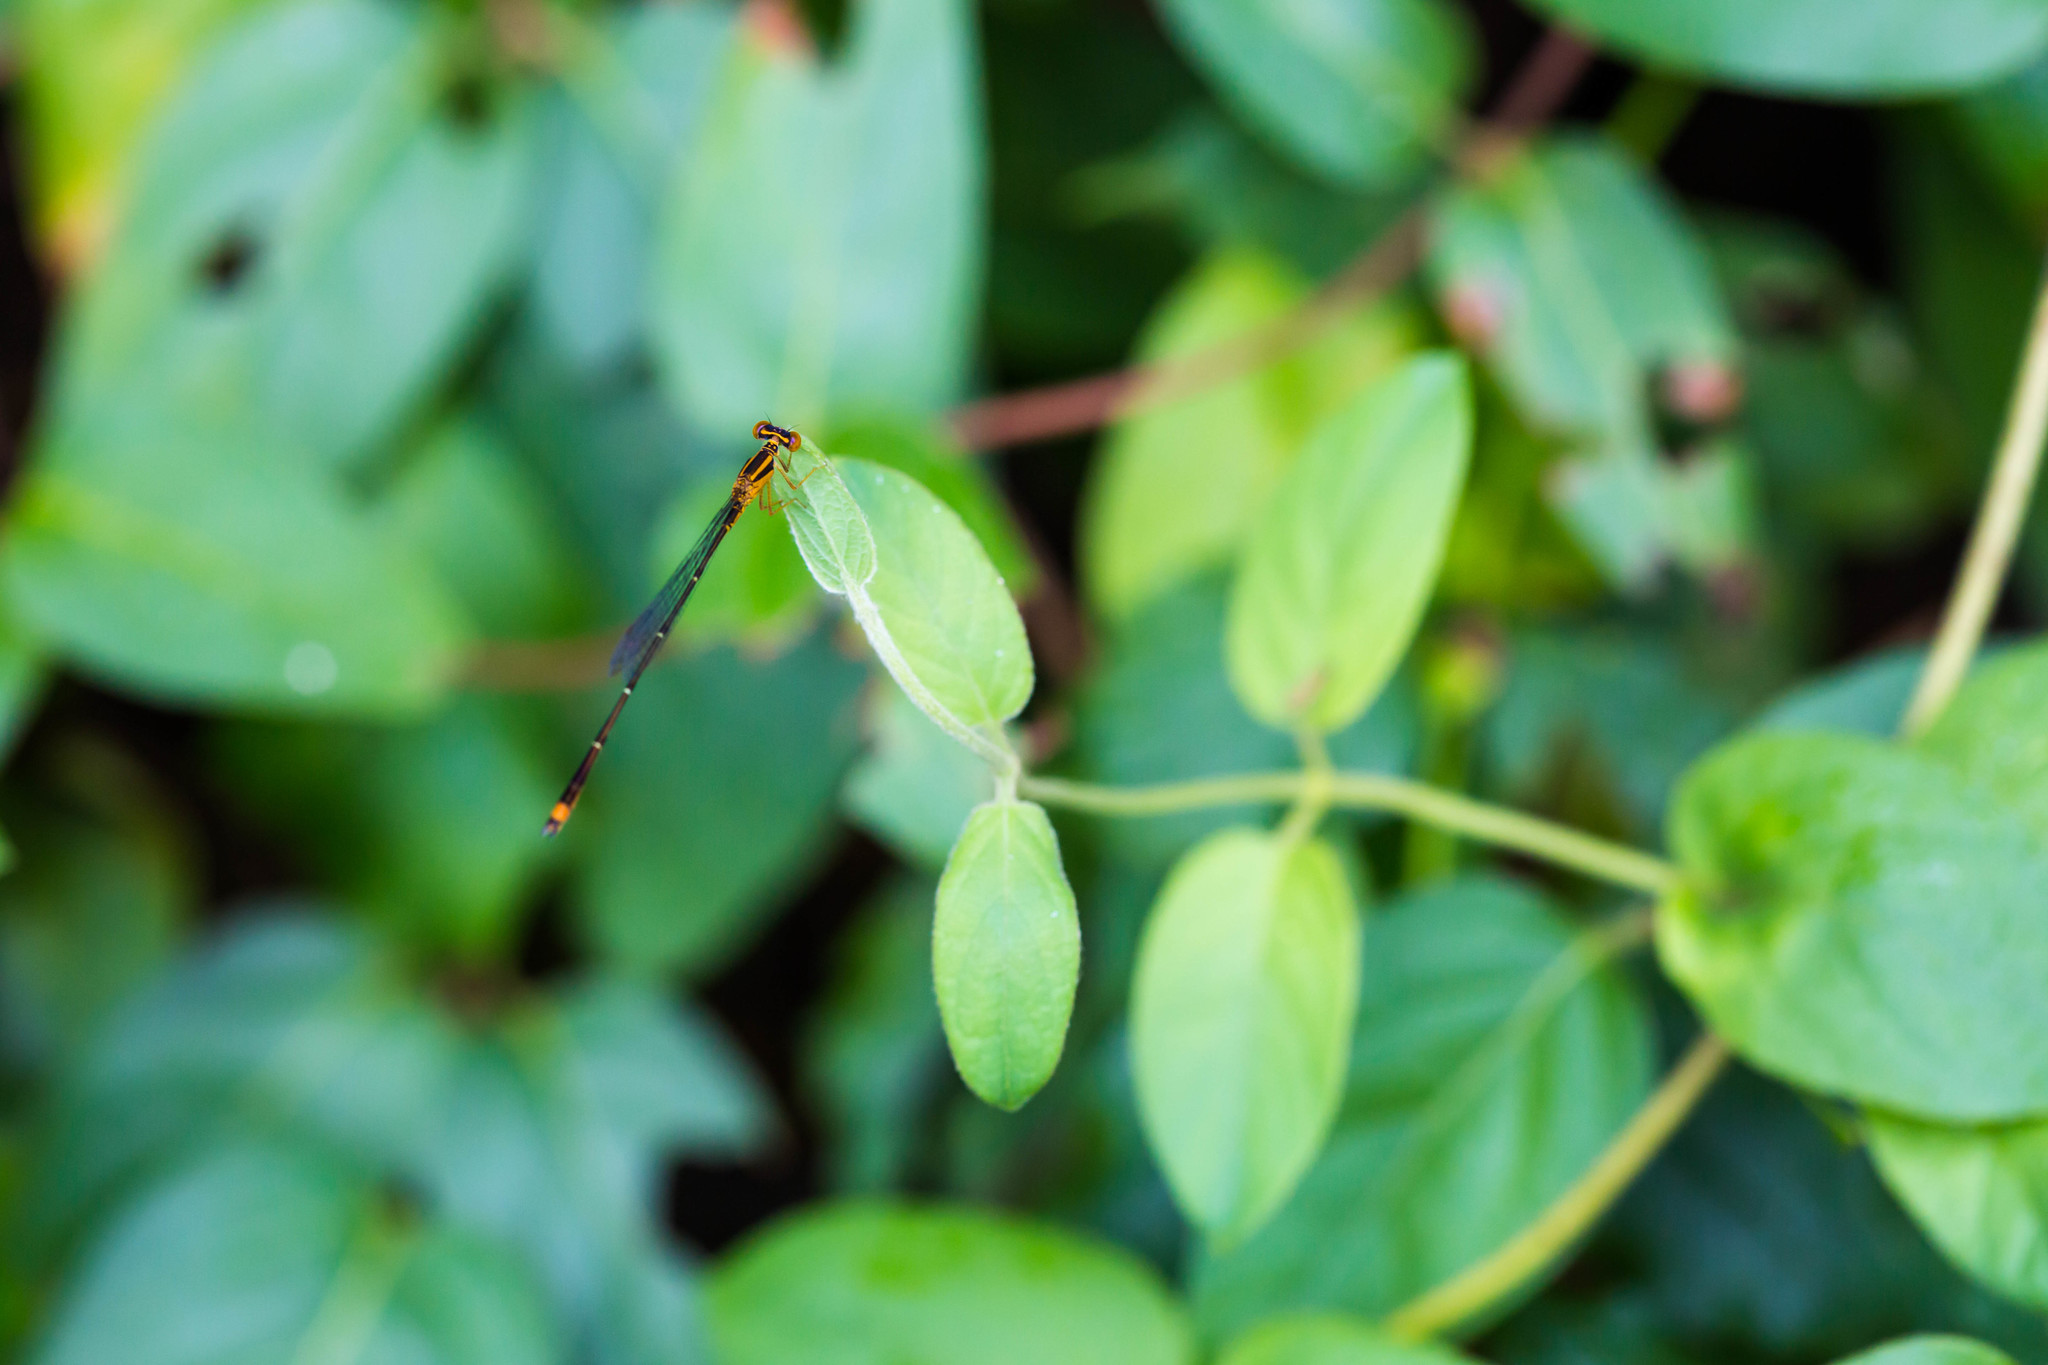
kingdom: Animalia
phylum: Arthropoda
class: Insecta
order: Odonata
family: Coenagrionidae
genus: Enallagma
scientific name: Enallagma signatum
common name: Orange bluet
